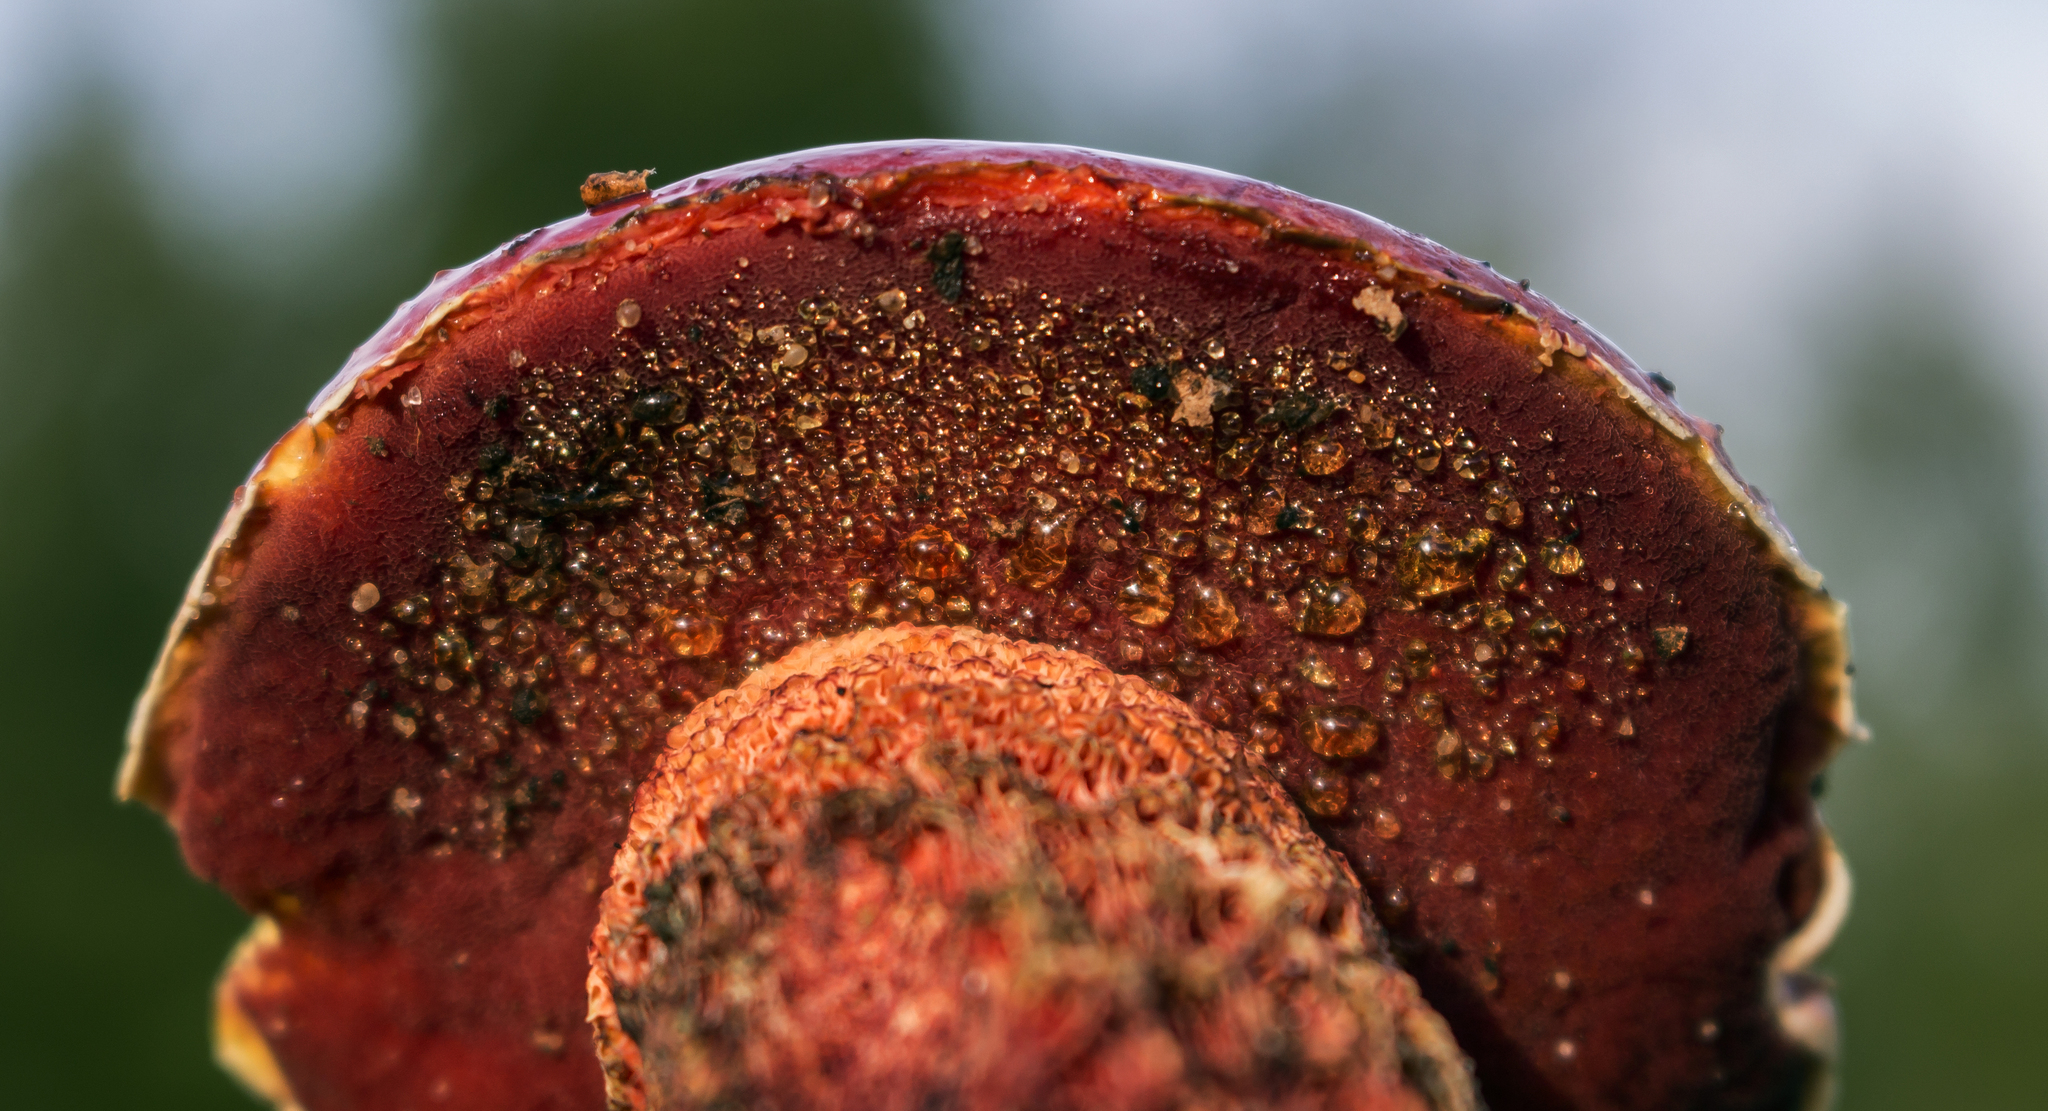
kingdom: Fungi
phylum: Basidiomycota
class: Agaricomycetes
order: Boletales
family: Boletaceae
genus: Butyriboletus
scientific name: Butyriboletus frostii
